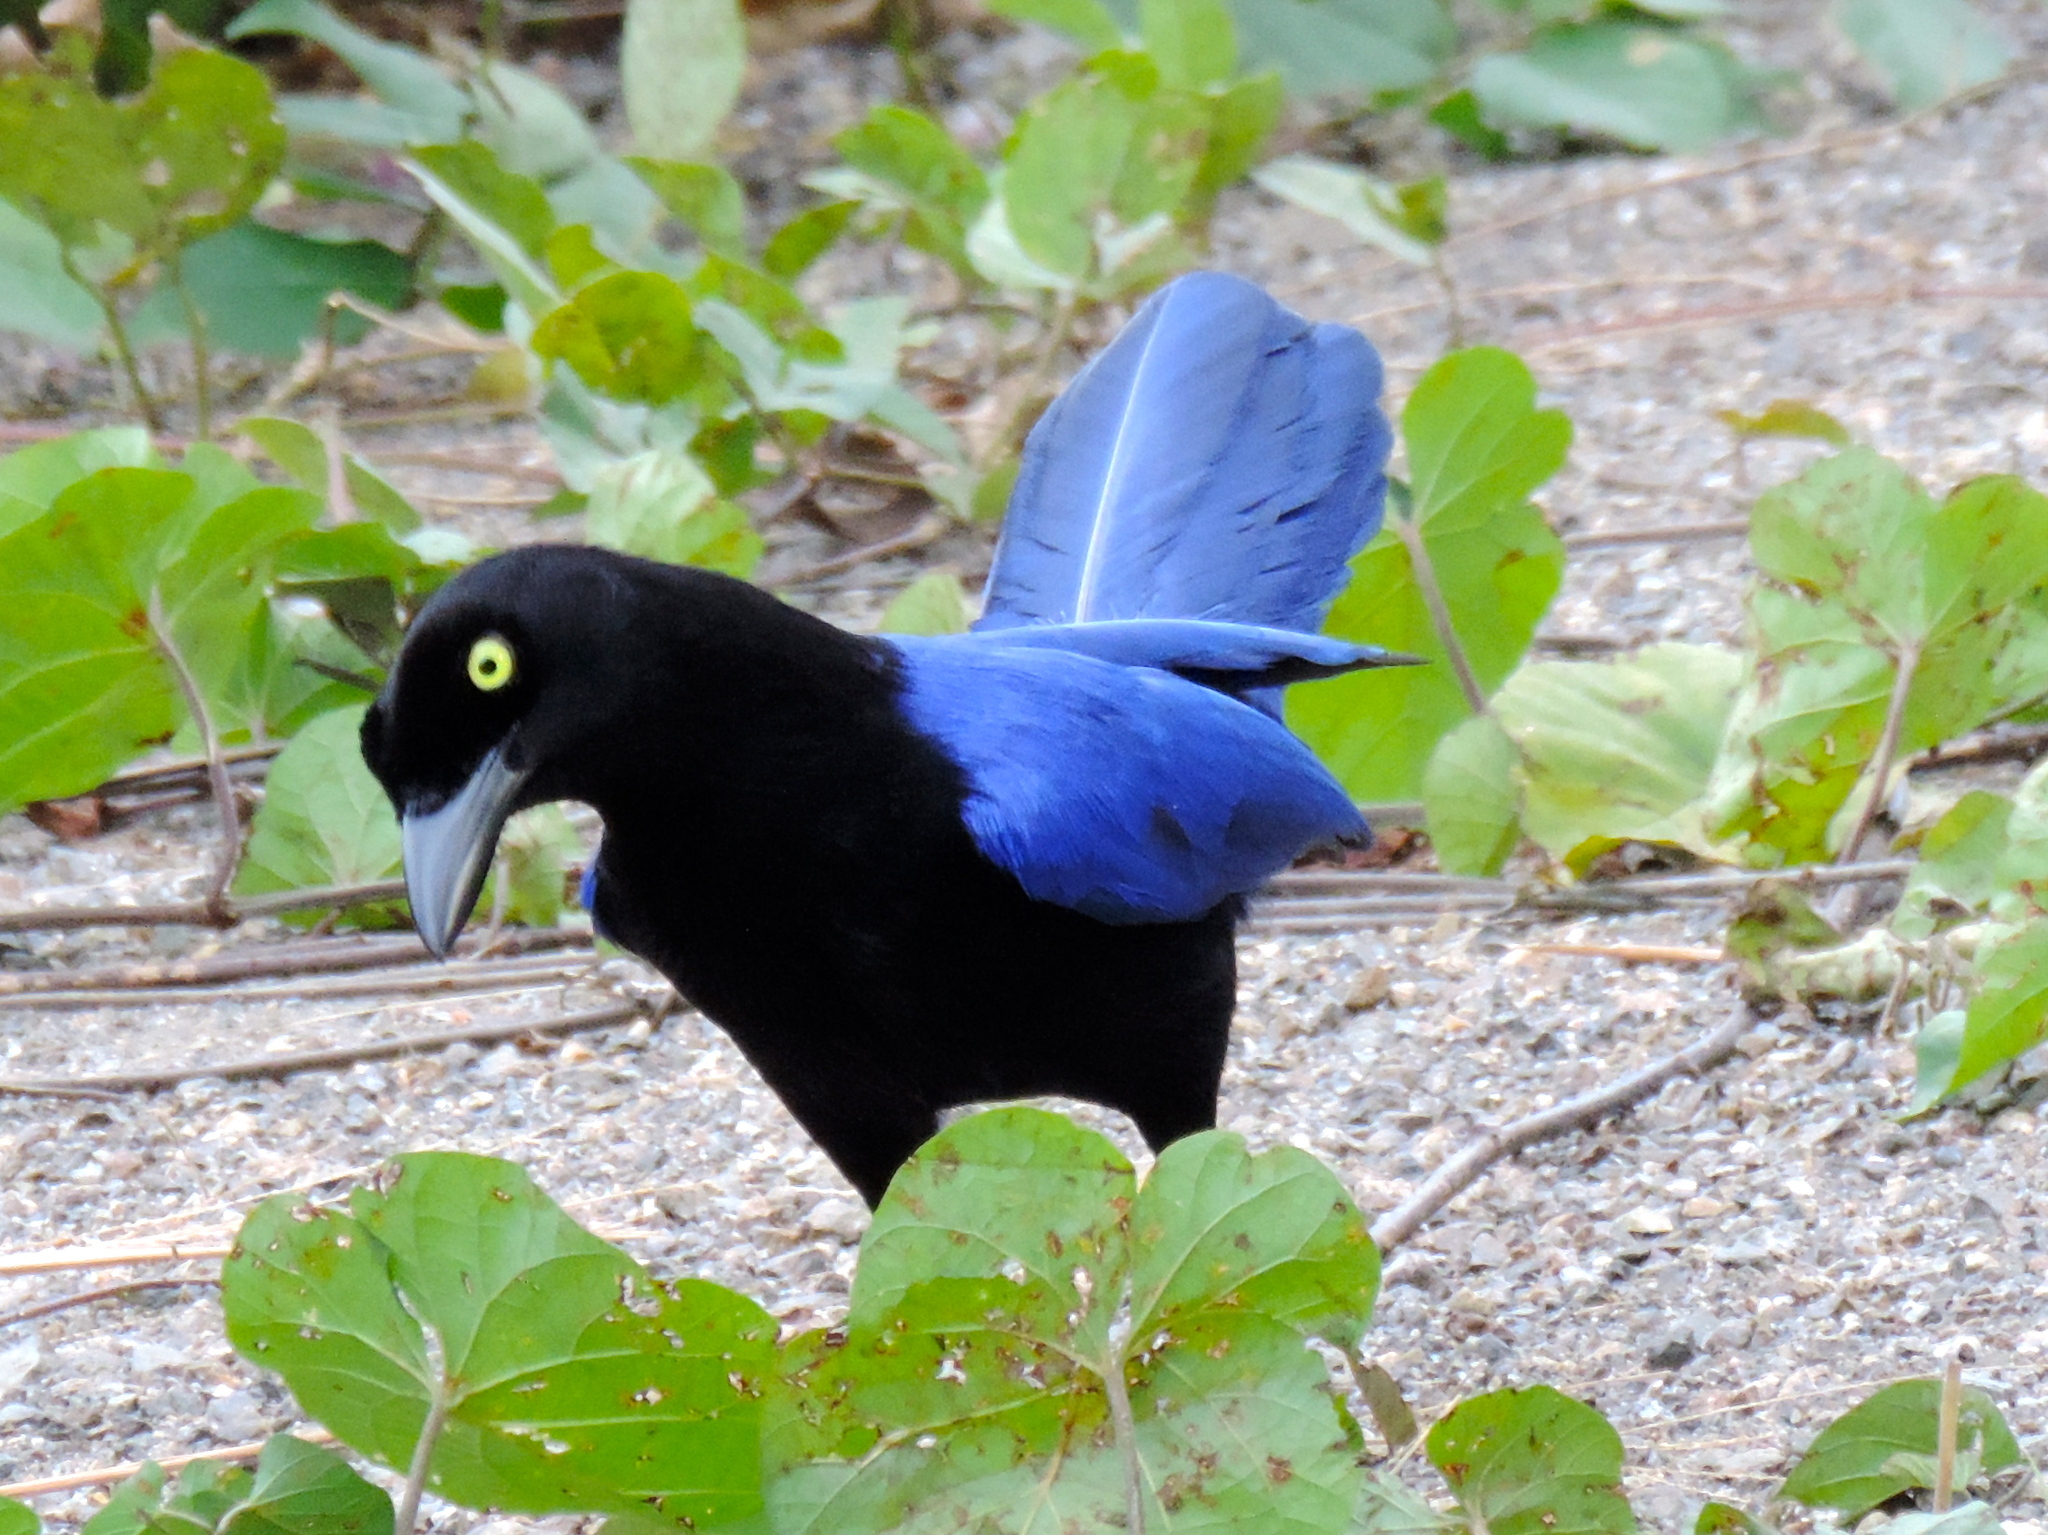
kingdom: Animalia
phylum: Chordata
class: Aves
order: Passeriformes
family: Corvidae
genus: Cyanocorax
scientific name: Cyanocorax beecheii
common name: Purplish-backed jay
